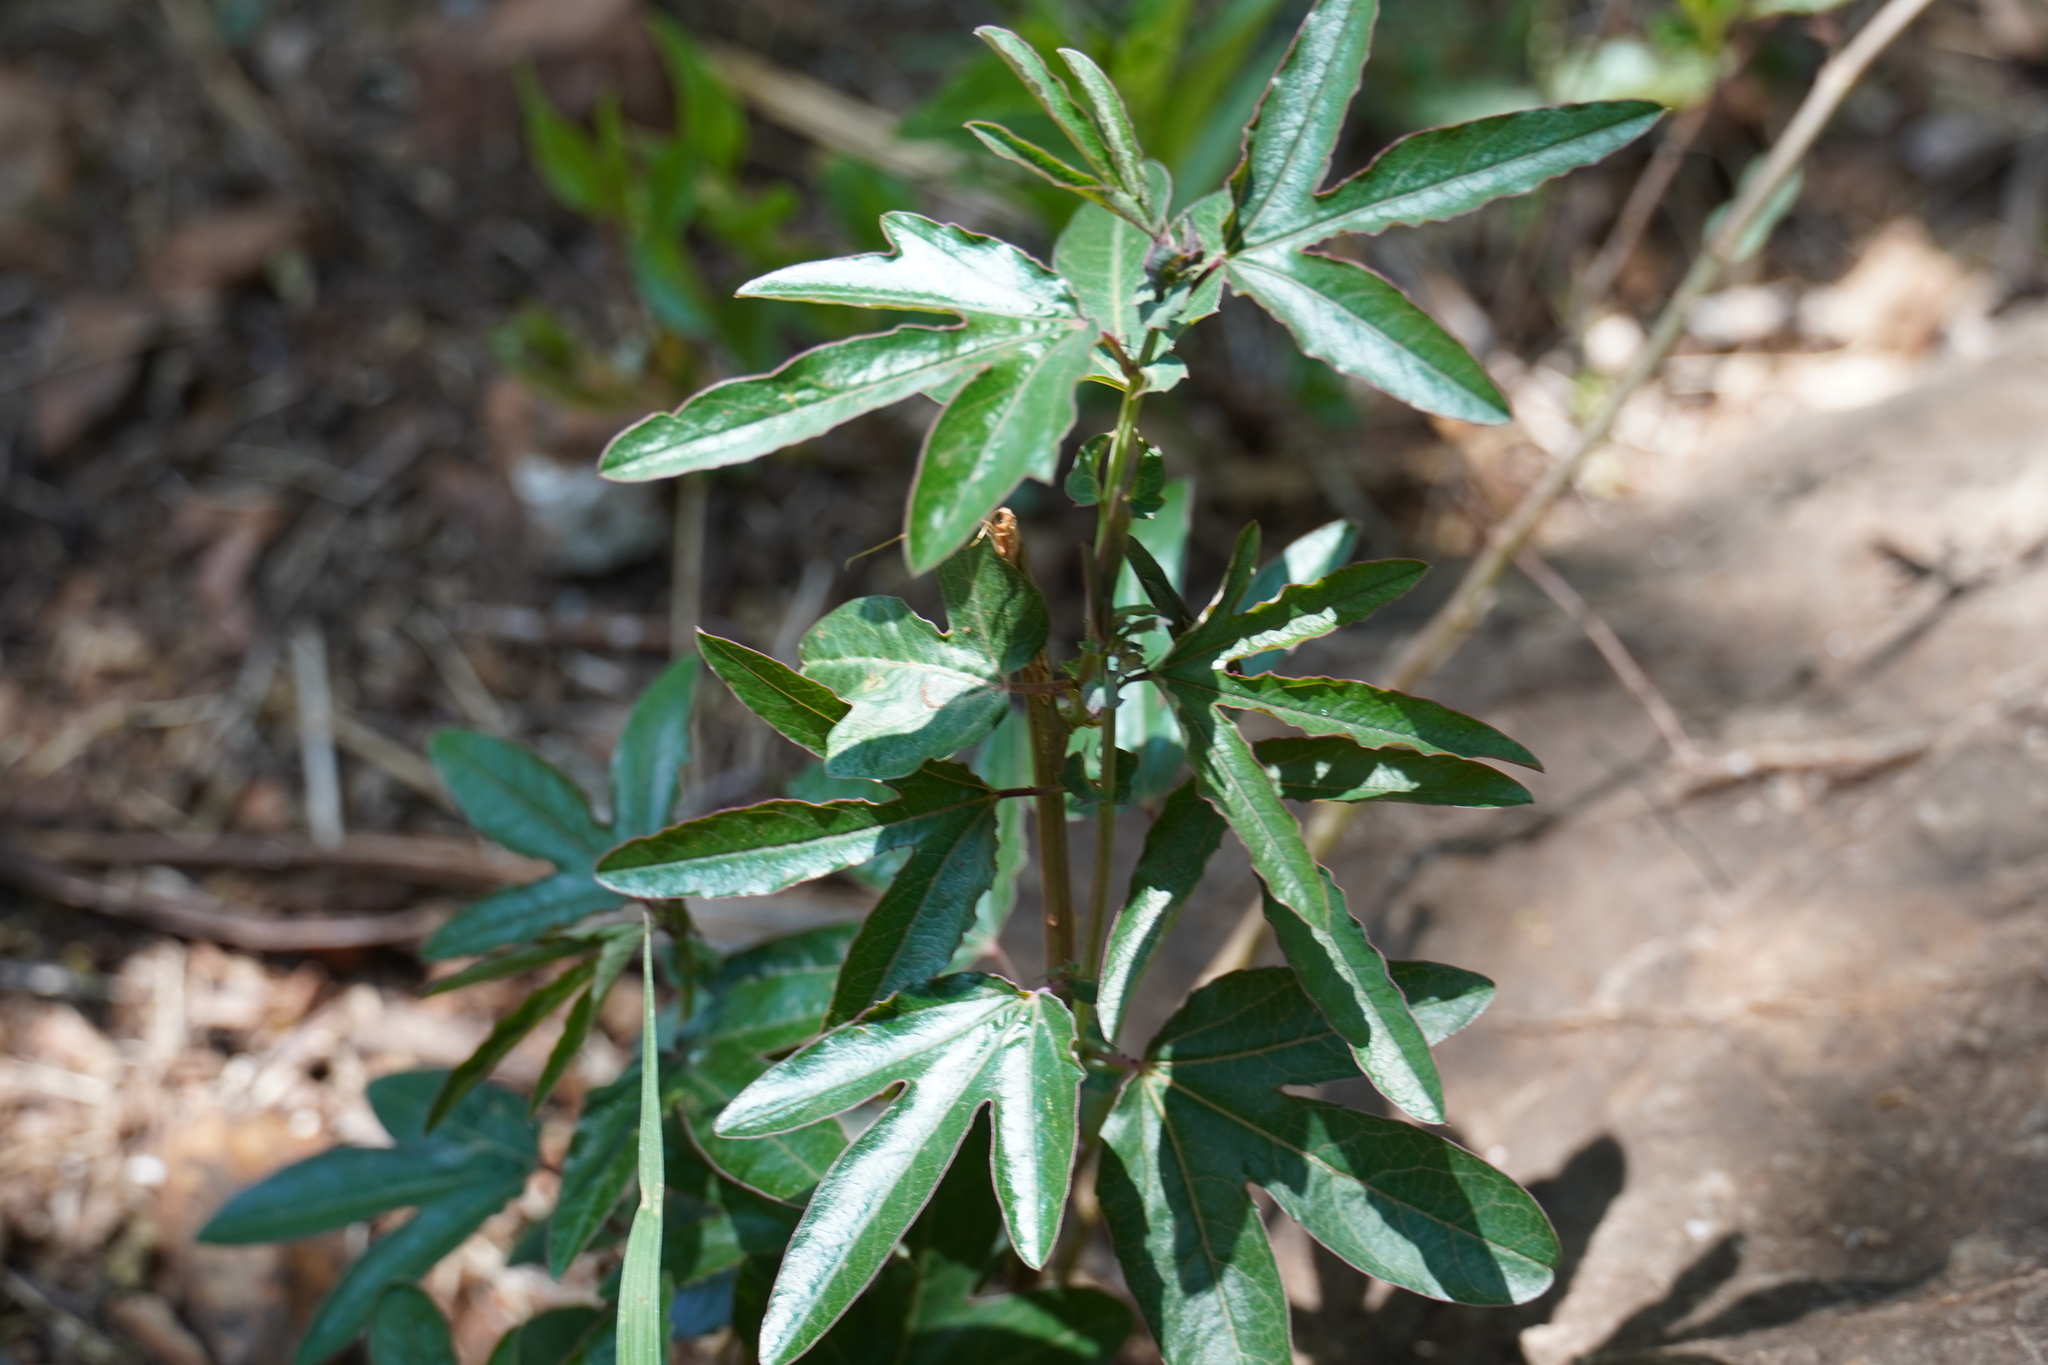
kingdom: Plantae
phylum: Tracheophyta
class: Magnoliopsida
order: Malpighiales
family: Euphorbiaceae
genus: Ricinus
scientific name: Ricinus communis
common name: Castor-oil-plant
